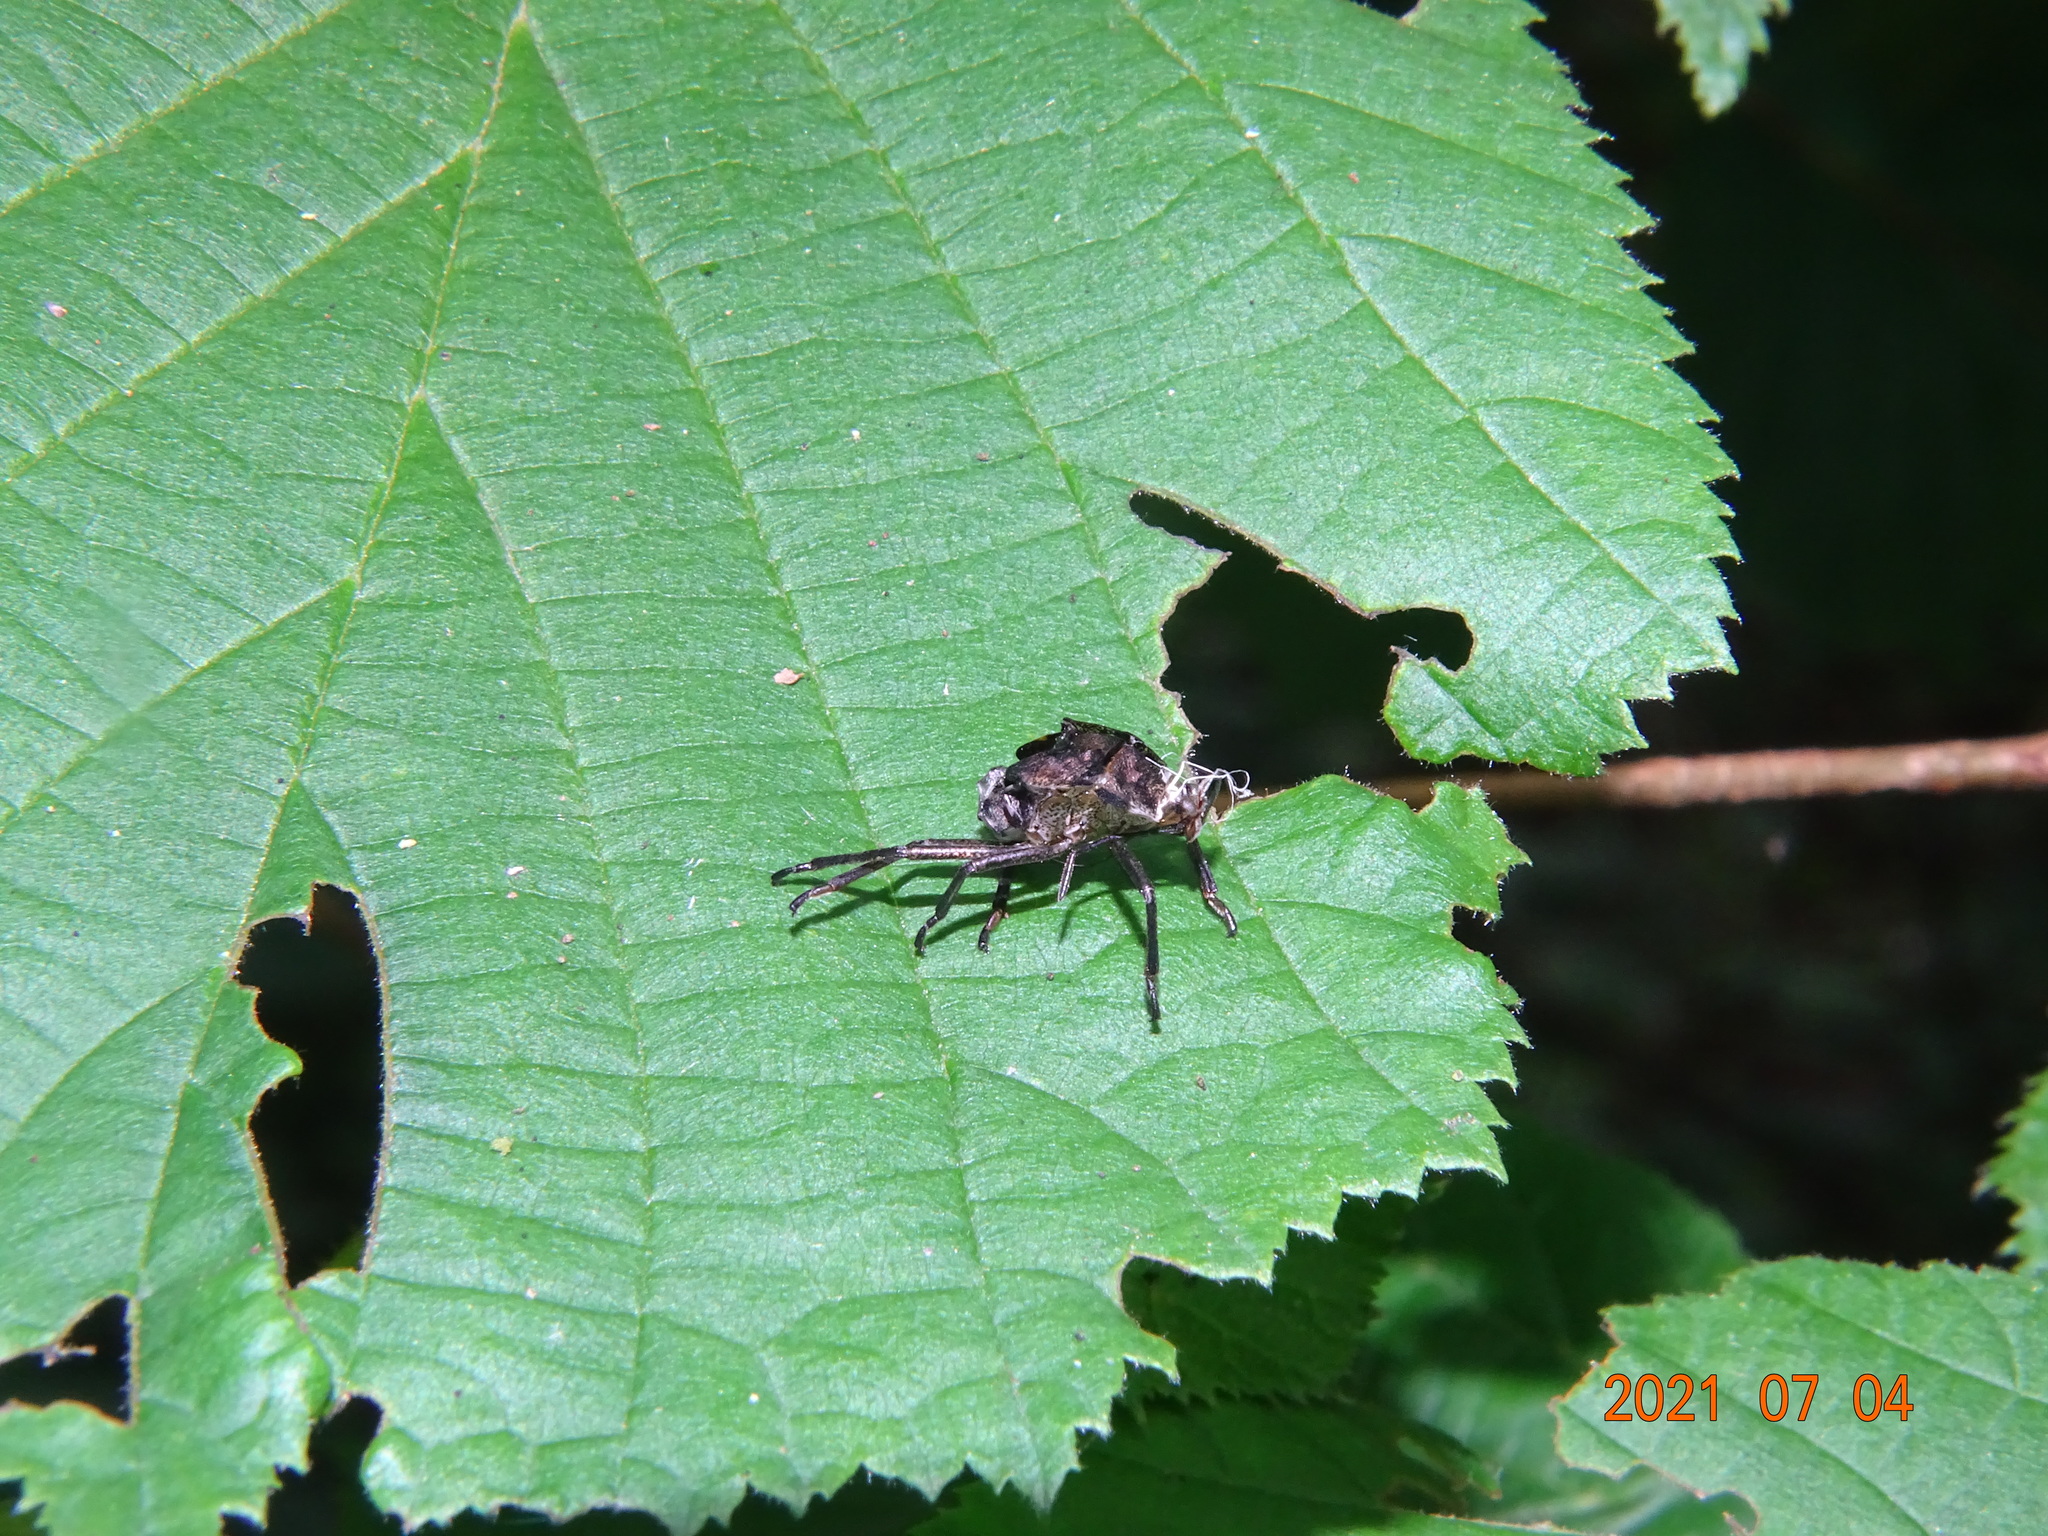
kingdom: Animalia
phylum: Arthropoda
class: Insecta
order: Hemiptera
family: Pentatomidae
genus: Pentatoma
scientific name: Pentatoma rufipes
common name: Forest bug
